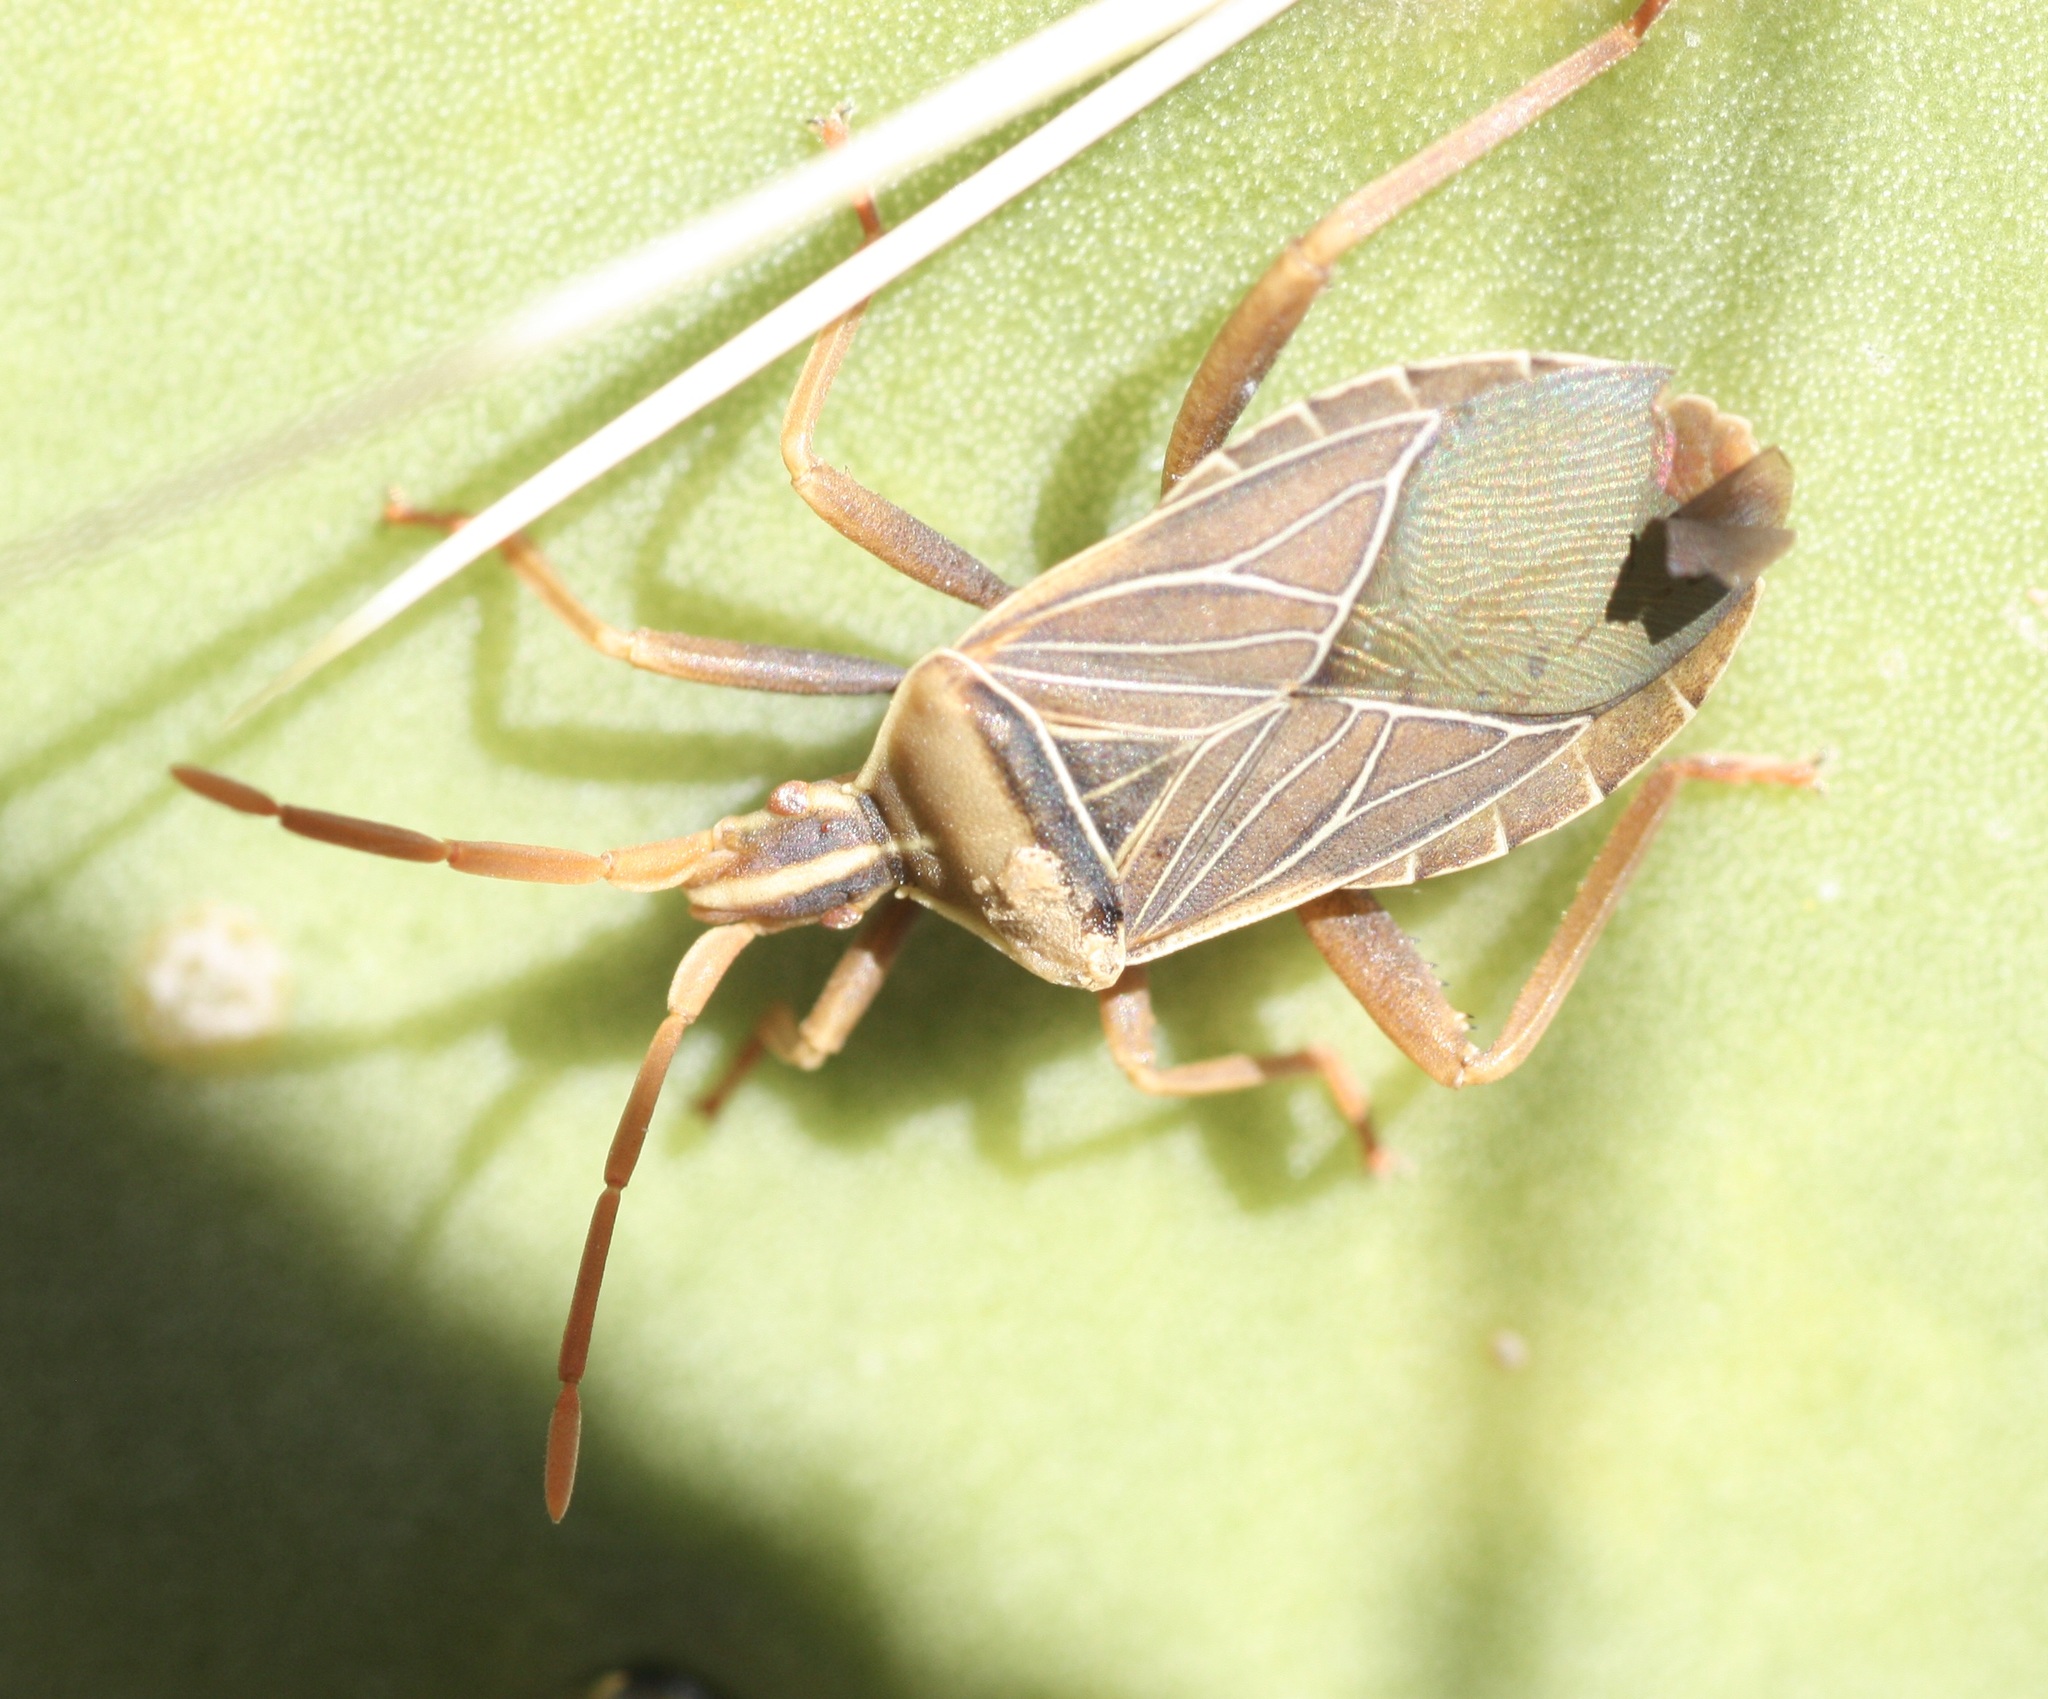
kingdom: Animalia
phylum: Arthropoda
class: Insecta
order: Hemiptera
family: Coreidae
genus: Chelinidea
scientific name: Chelinidea vittiger
